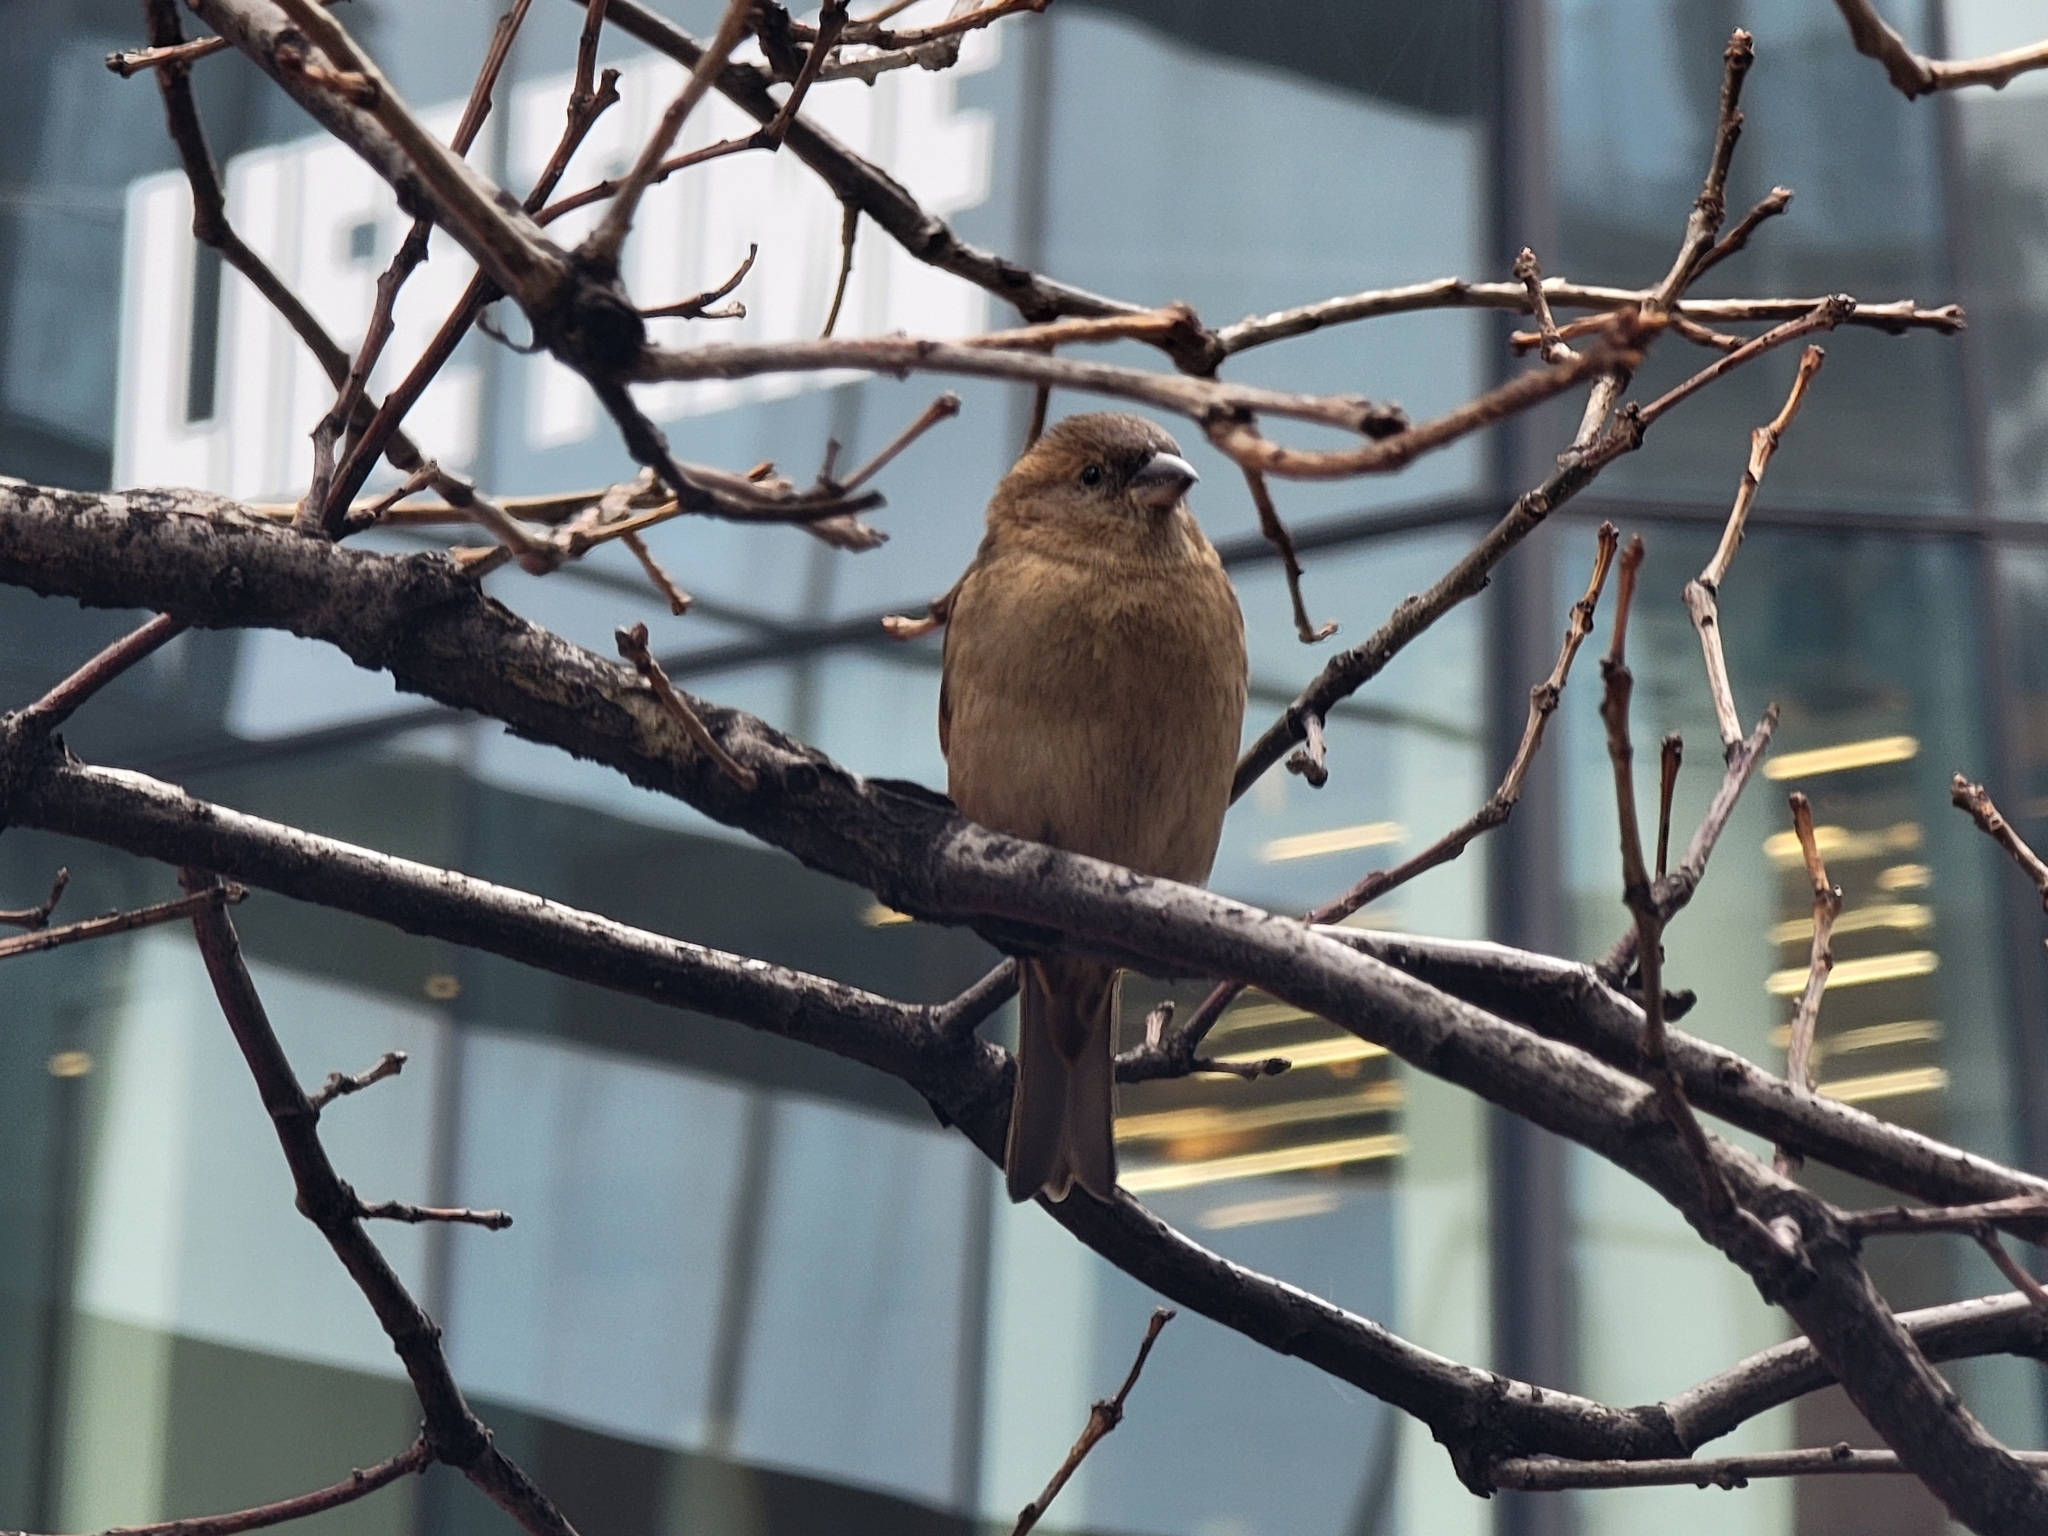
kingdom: Animalia
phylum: Chordata
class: Aves
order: Passeriformes
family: Passeridae
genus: Passer
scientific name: Passer domesticus
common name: House sparrow
